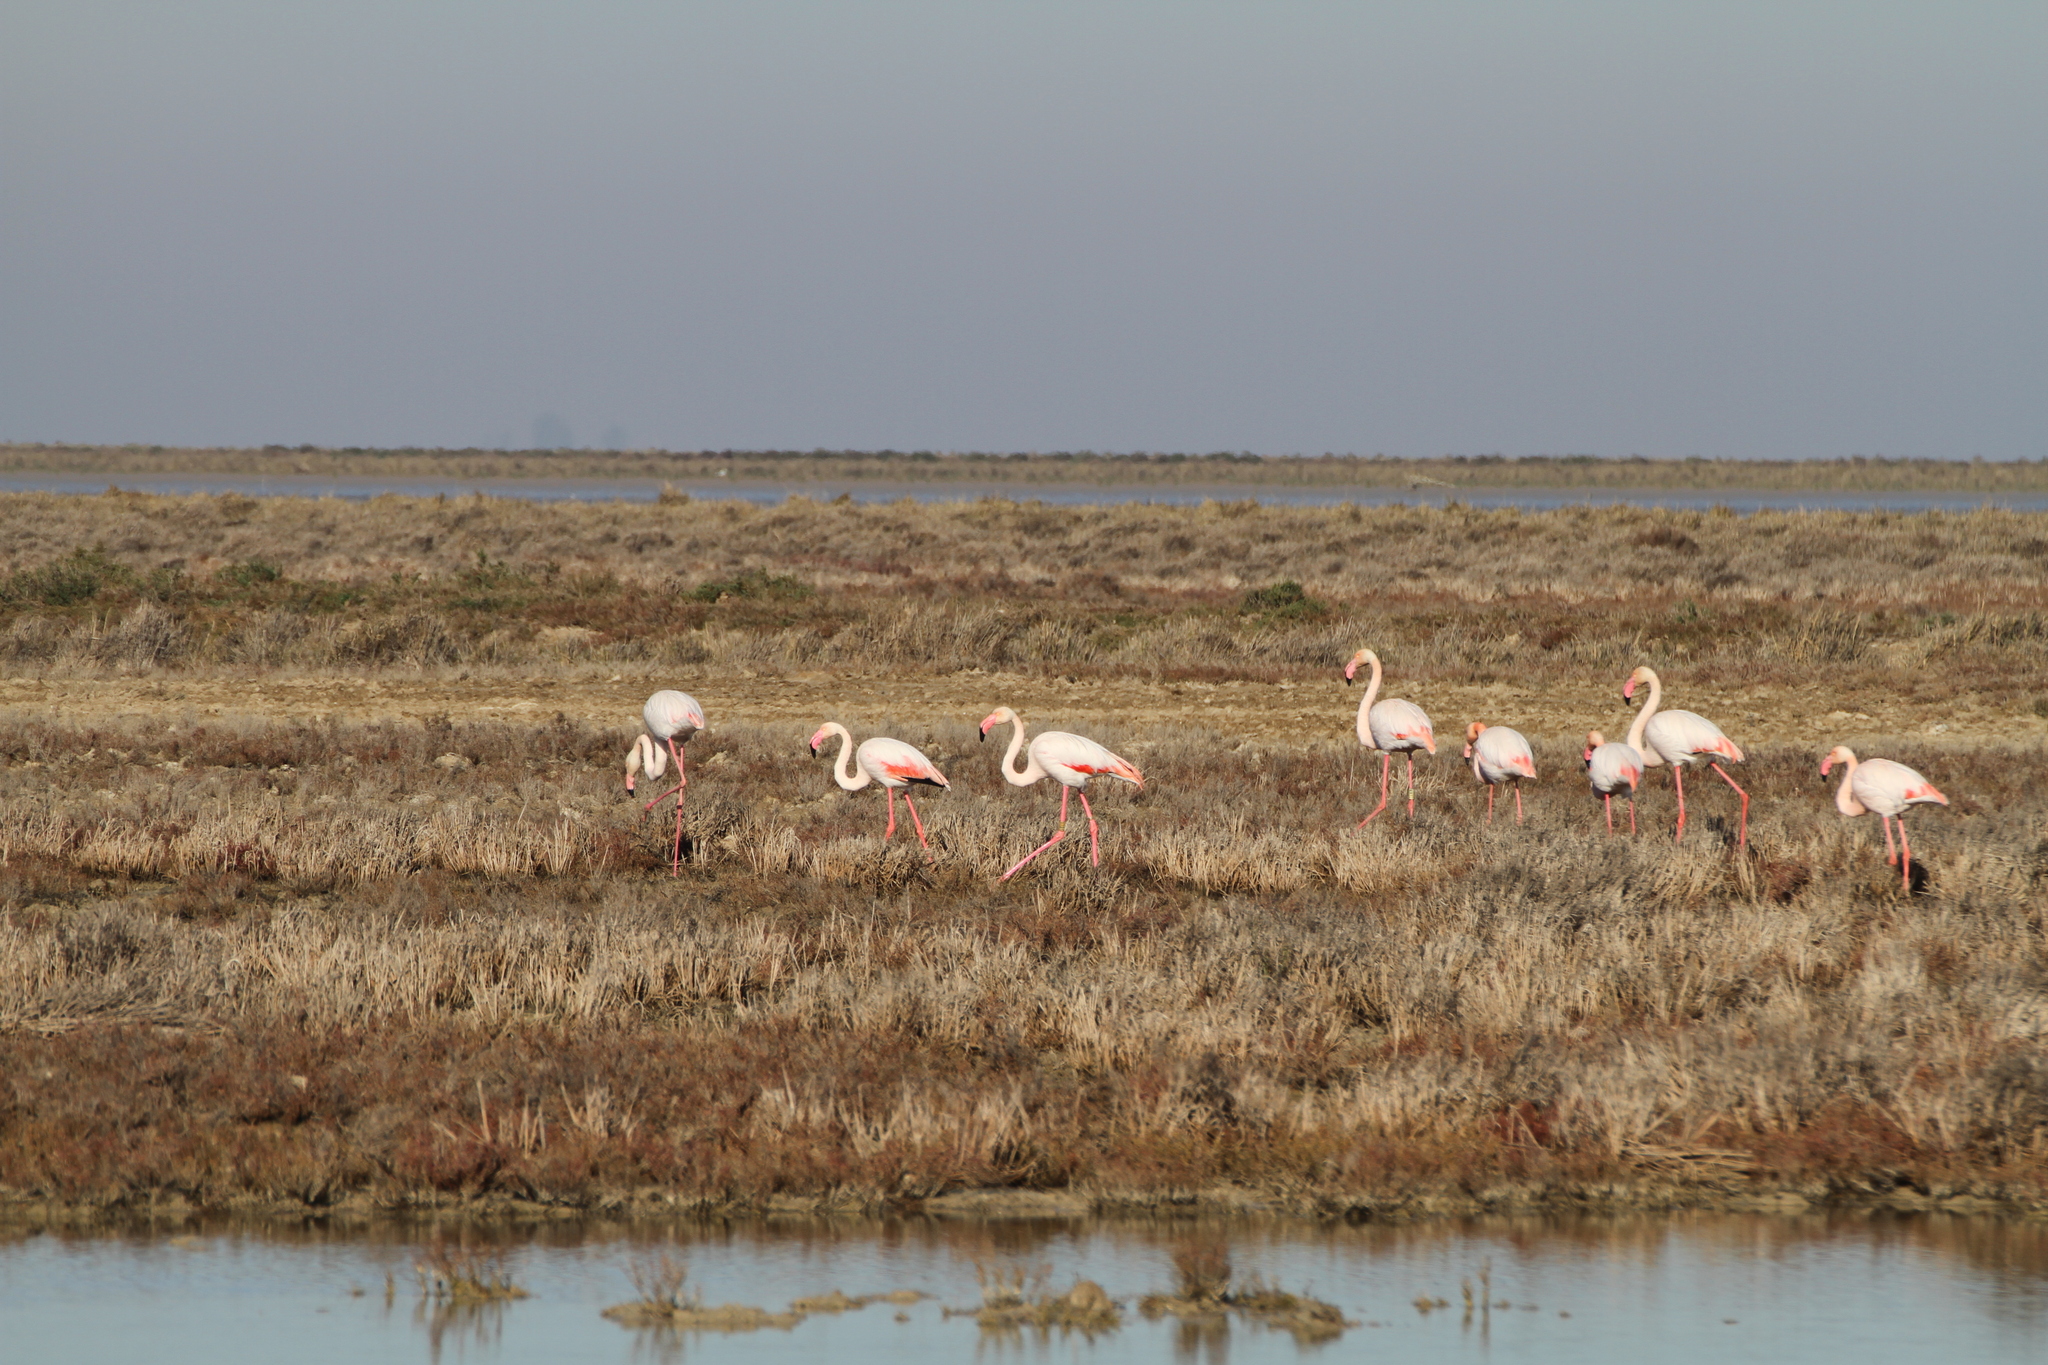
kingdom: Animalia
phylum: Chordata
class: Aves
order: Phoenicopteriformes
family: Phoenicopteridae
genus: Phoenicopterus
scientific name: Phoenicopterus roseus
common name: Greater flamingo
